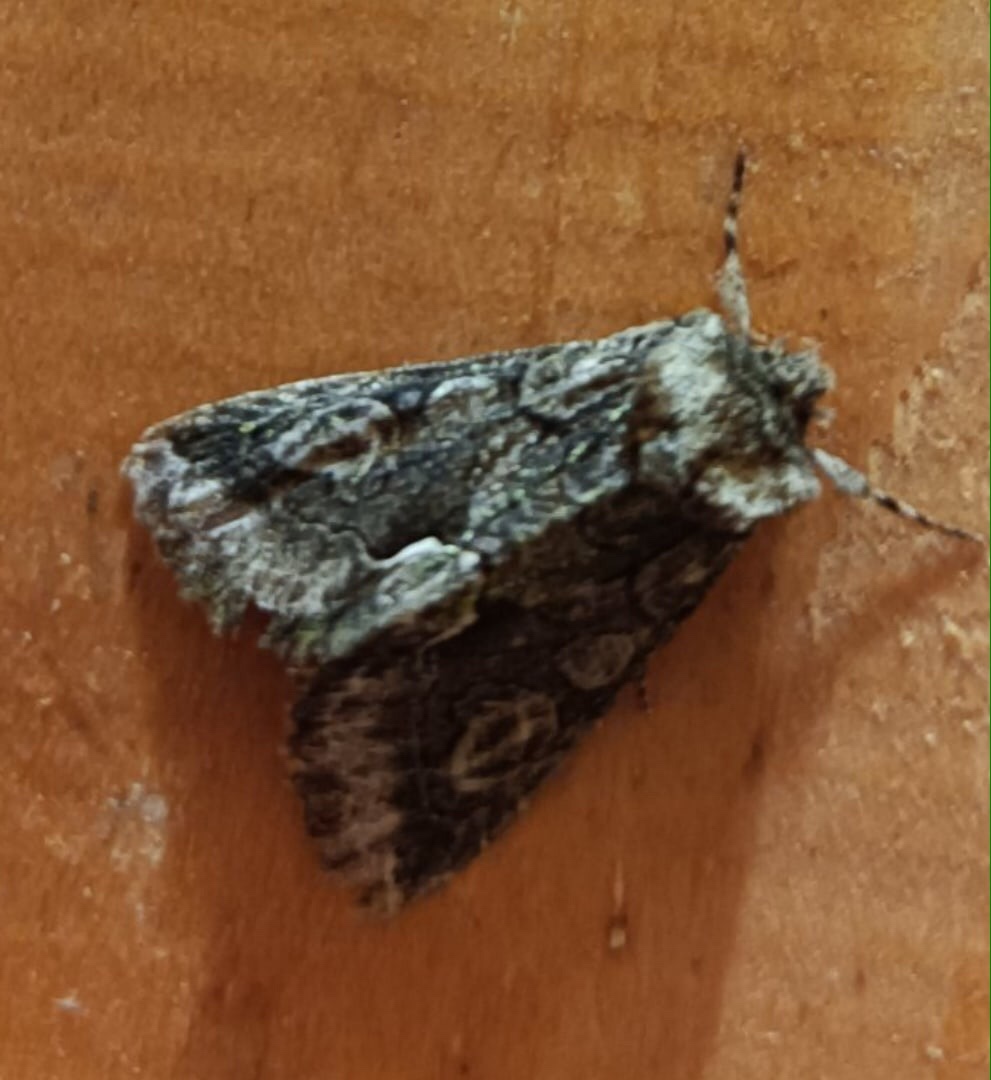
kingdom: Animalia
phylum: Arthropoda
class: Insecta
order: Lepidoptera
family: Noctuidae
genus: Allophyes
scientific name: Allophyes oxyacanthae
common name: Green-brindled crescent
